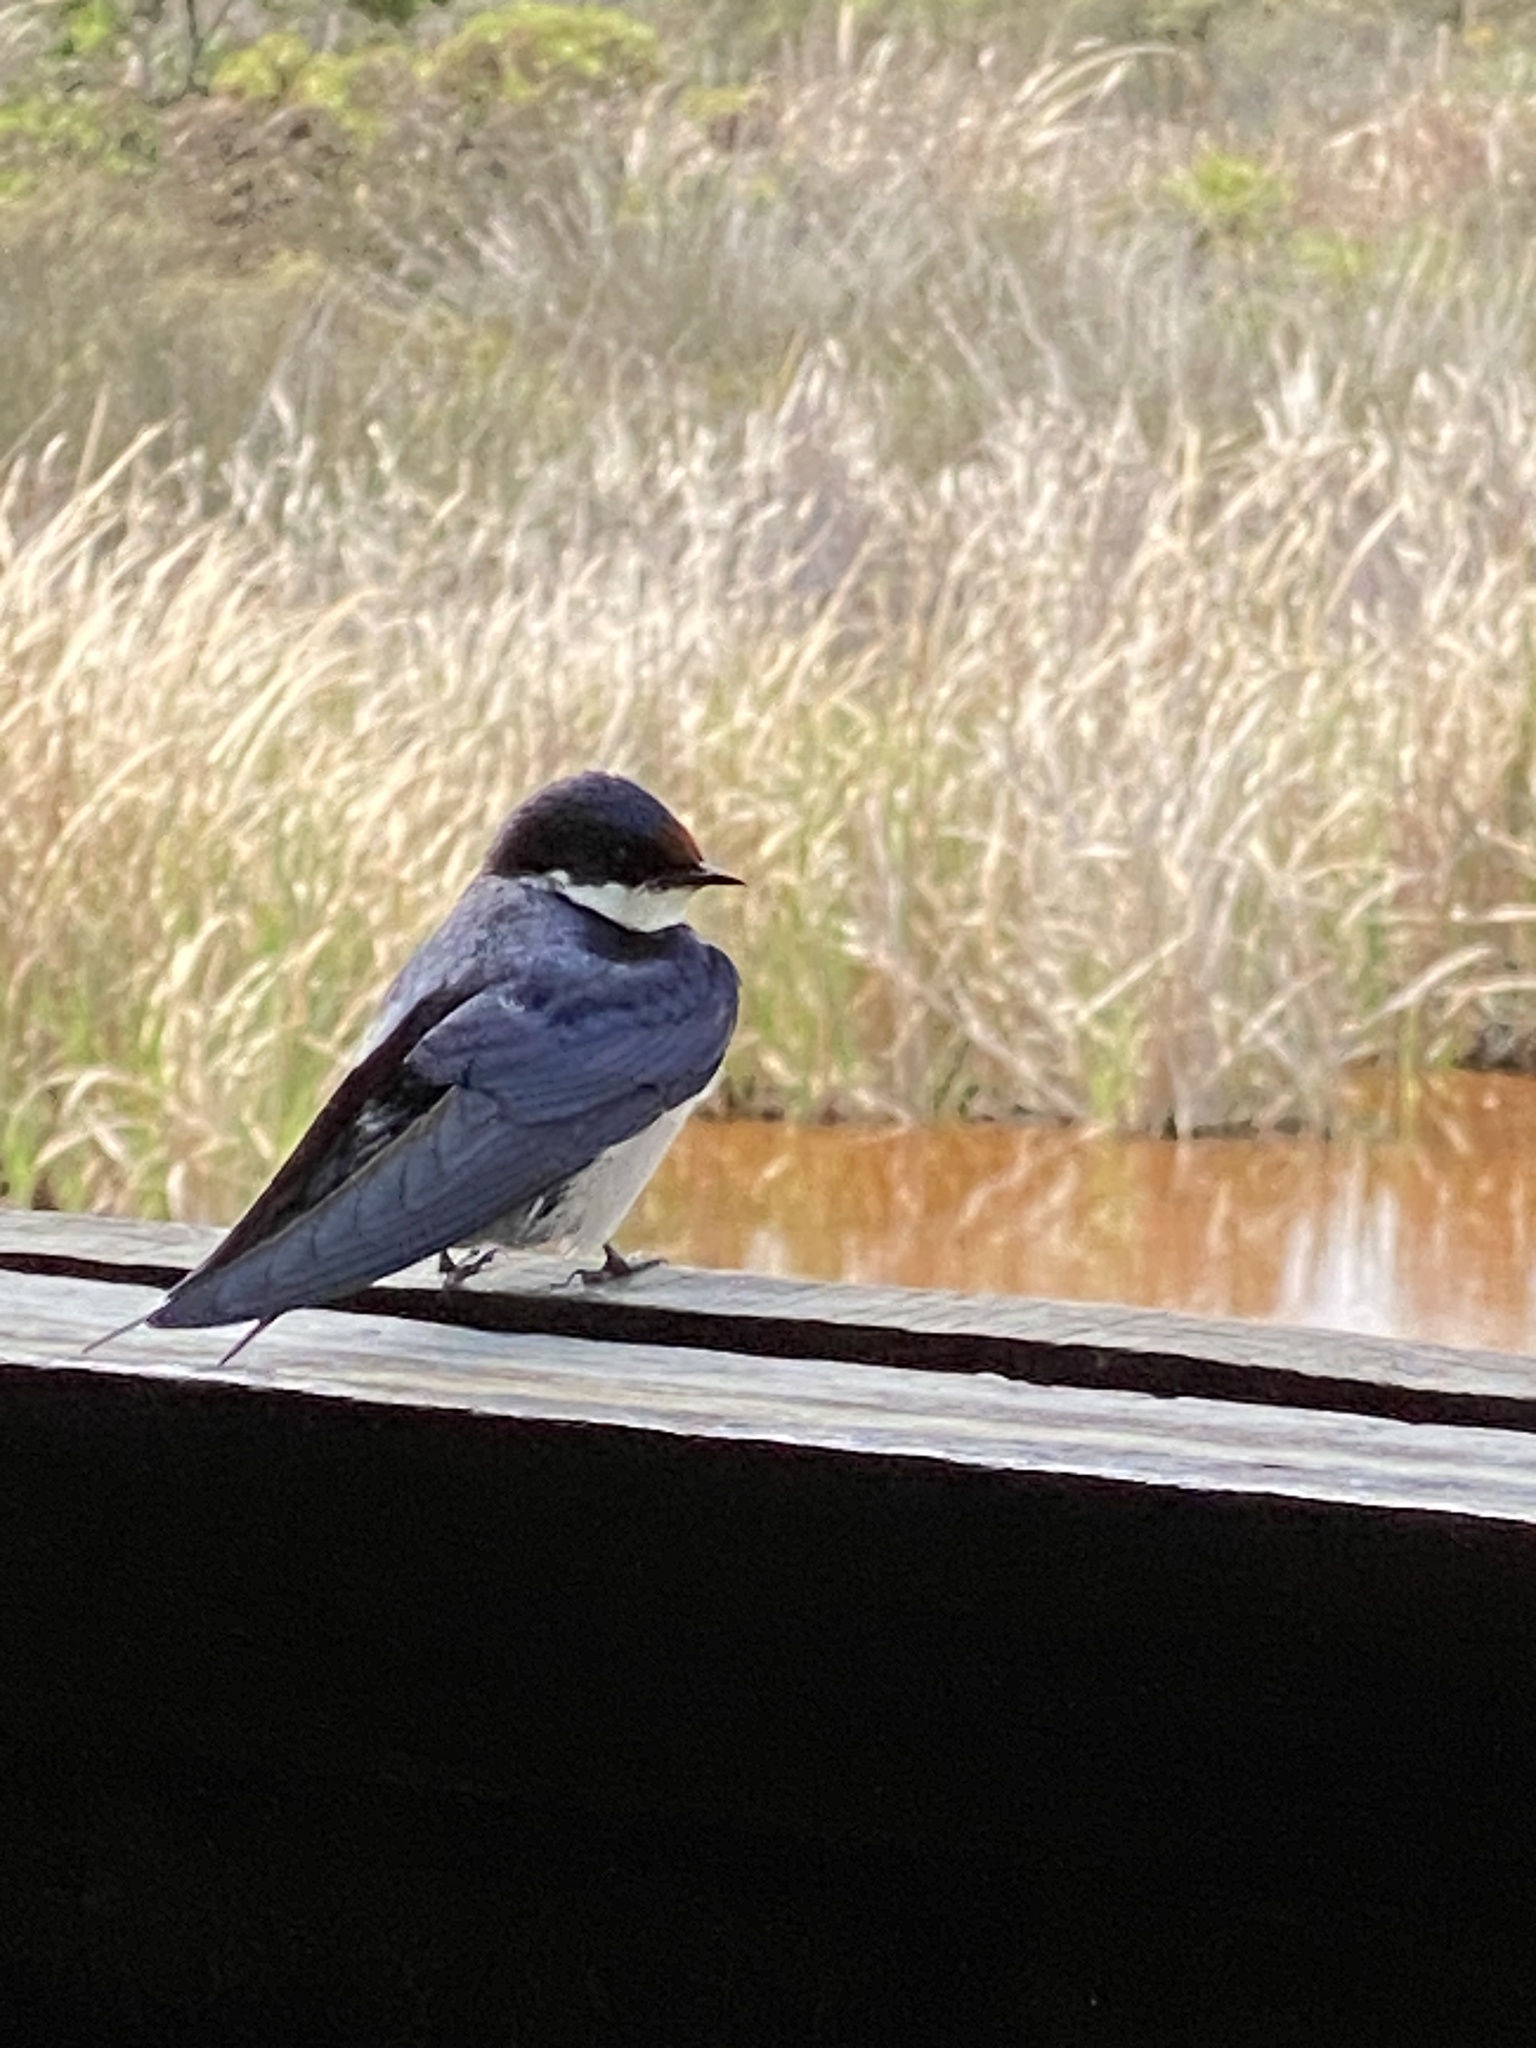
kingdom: Animalia
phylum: Chordata
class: Aves
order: Passeriformes
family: Hirundinidae
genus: Hirundo
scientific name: Hirundo albigularis
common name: White-throated swallow
